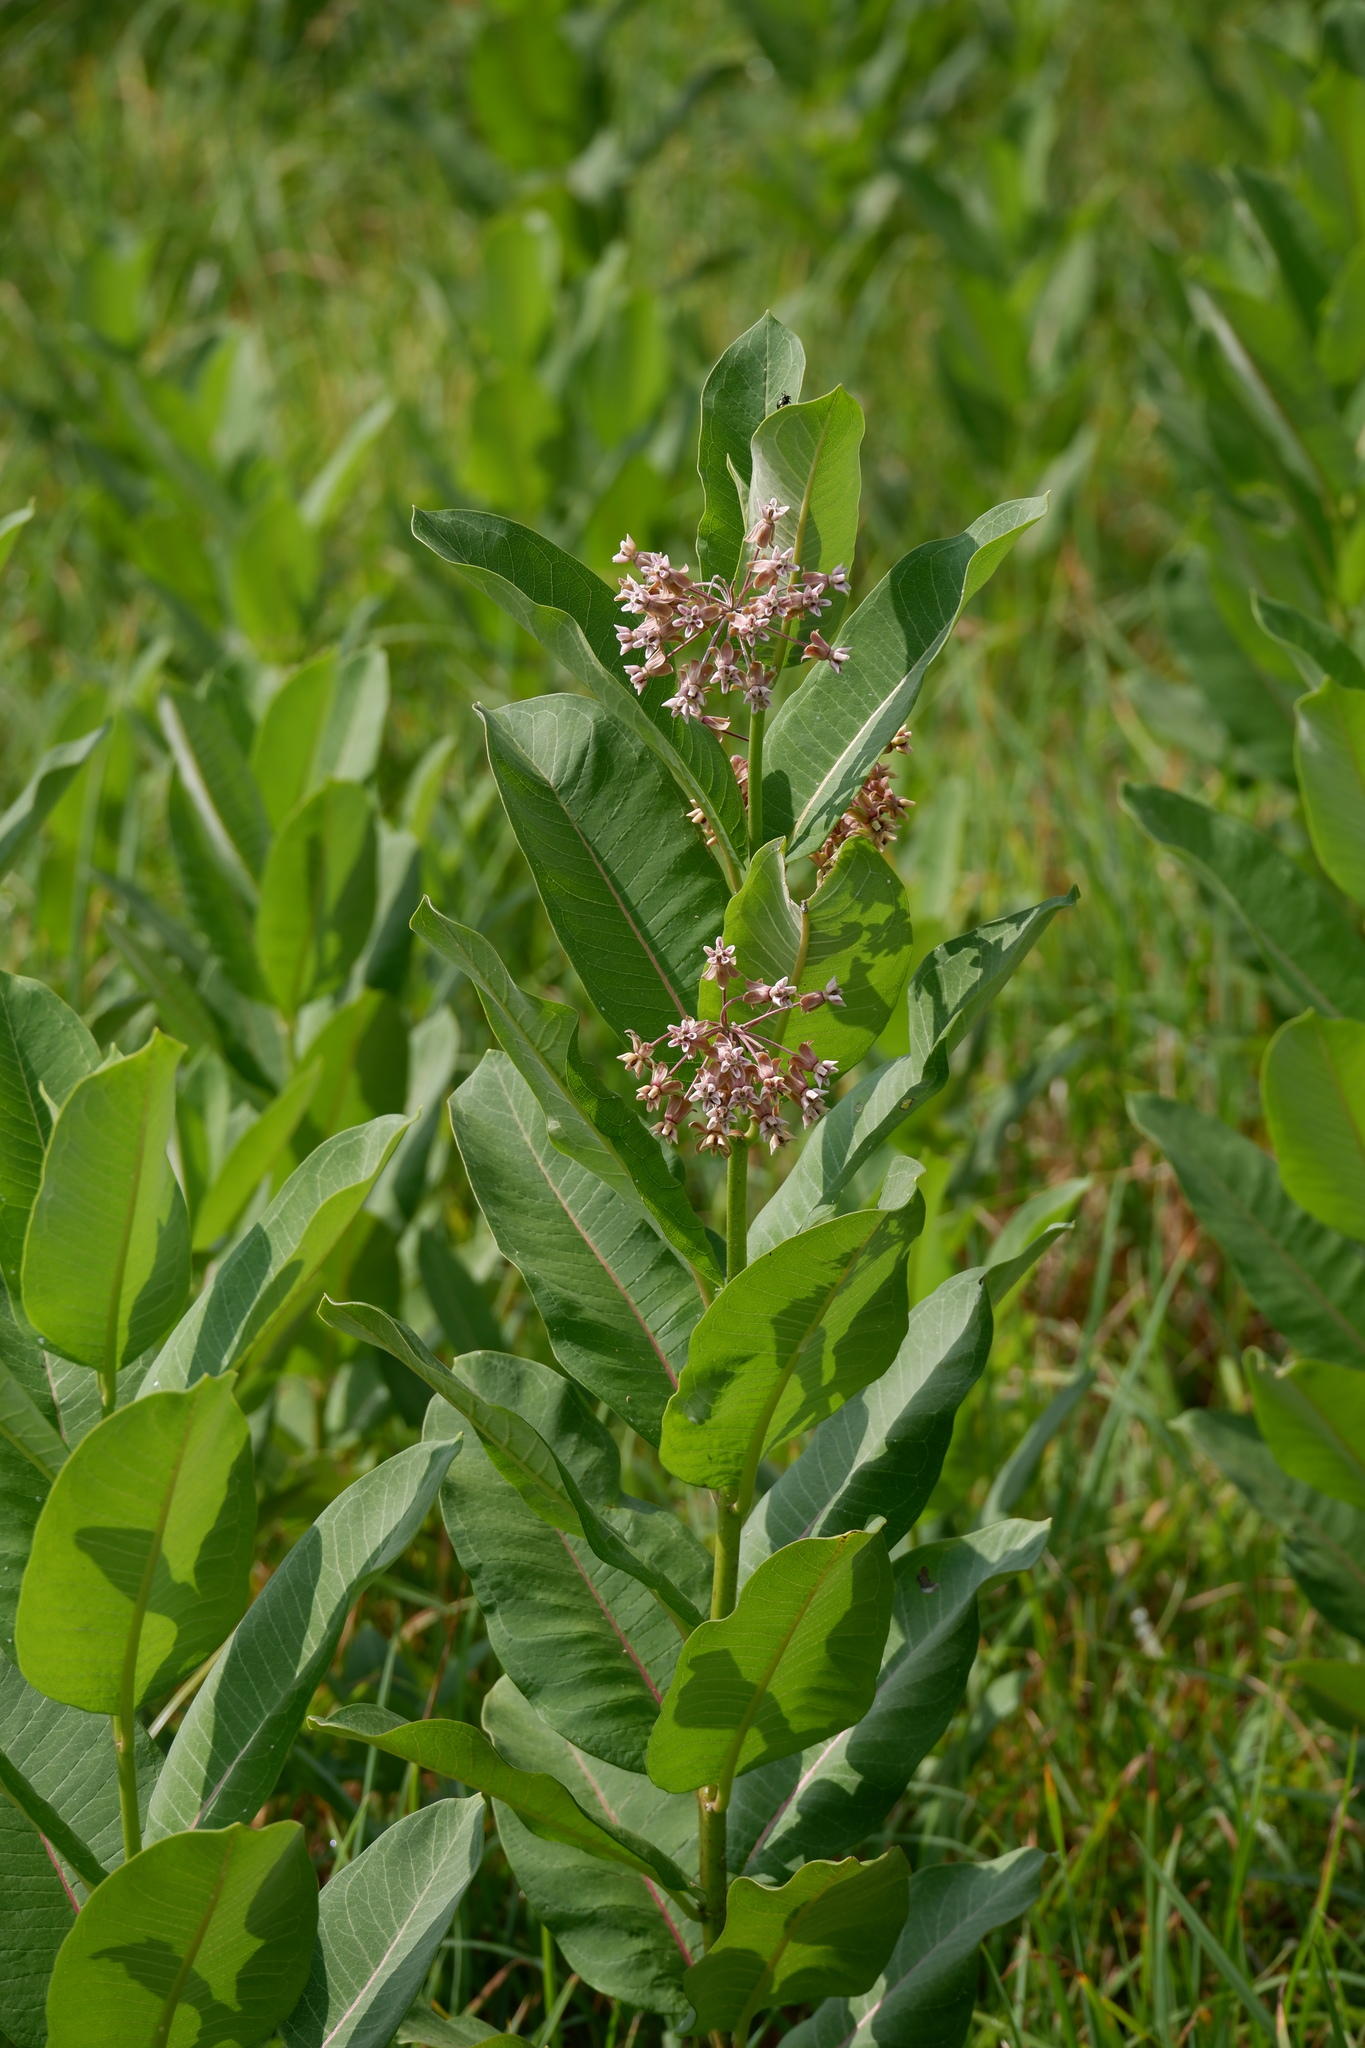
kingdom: Plantae
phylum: Tracheophyta
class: Magnoliopsida
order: Gentianales
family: Apocynaceae
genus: Asclepias
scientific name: Asclepias syriaca
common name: Common milkweed
